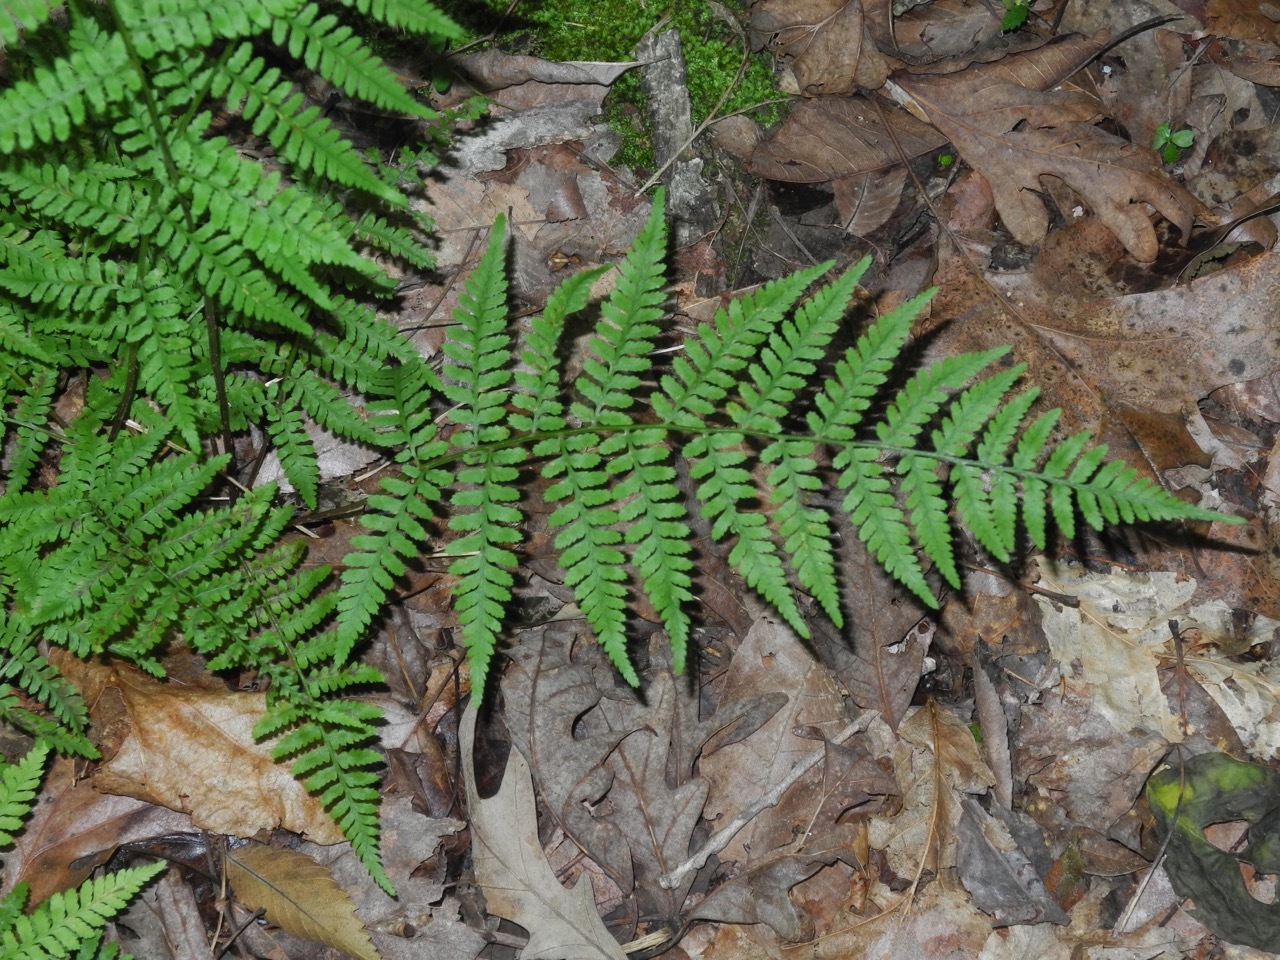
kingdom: Plantae
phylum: Tracheophyta
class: Polypodiopsida
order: Polypodiales
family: Athyriaceae
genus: Athyrium
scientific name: Athyrium asplenioides
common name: Southern lady fern
